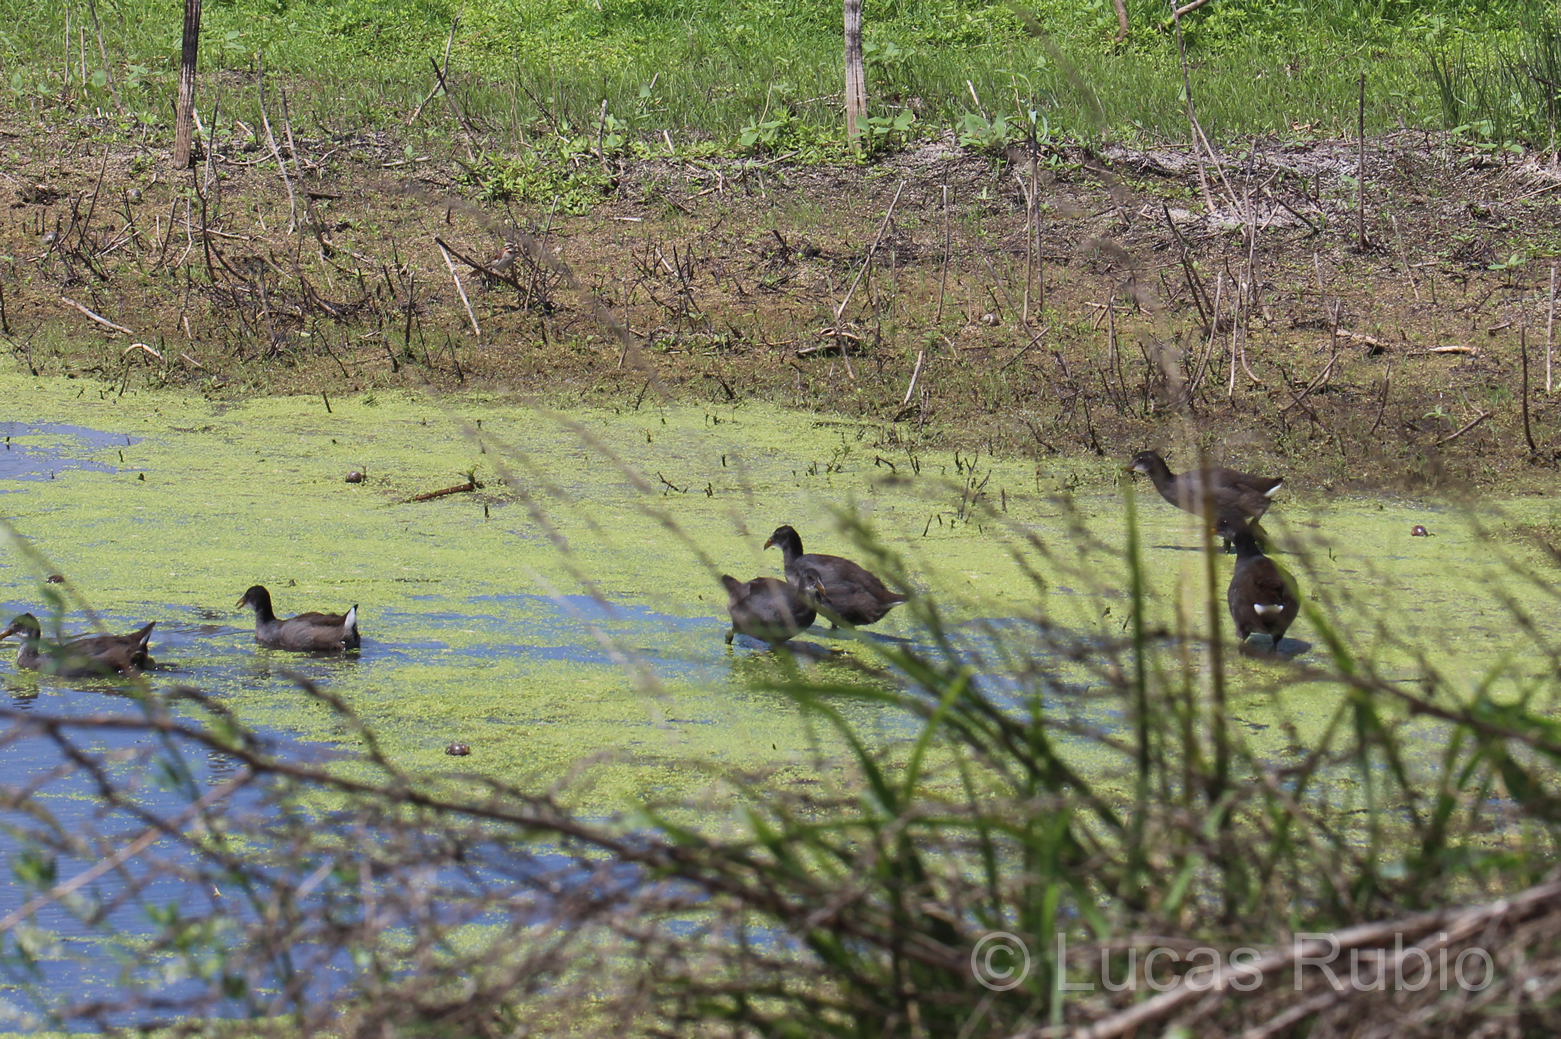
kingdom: Animalia
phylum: Chordata
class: Aves
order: Gruiformes
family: Rallidae
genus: Fulica
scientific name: Fulica rufifrons
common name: Red-fronted coot
